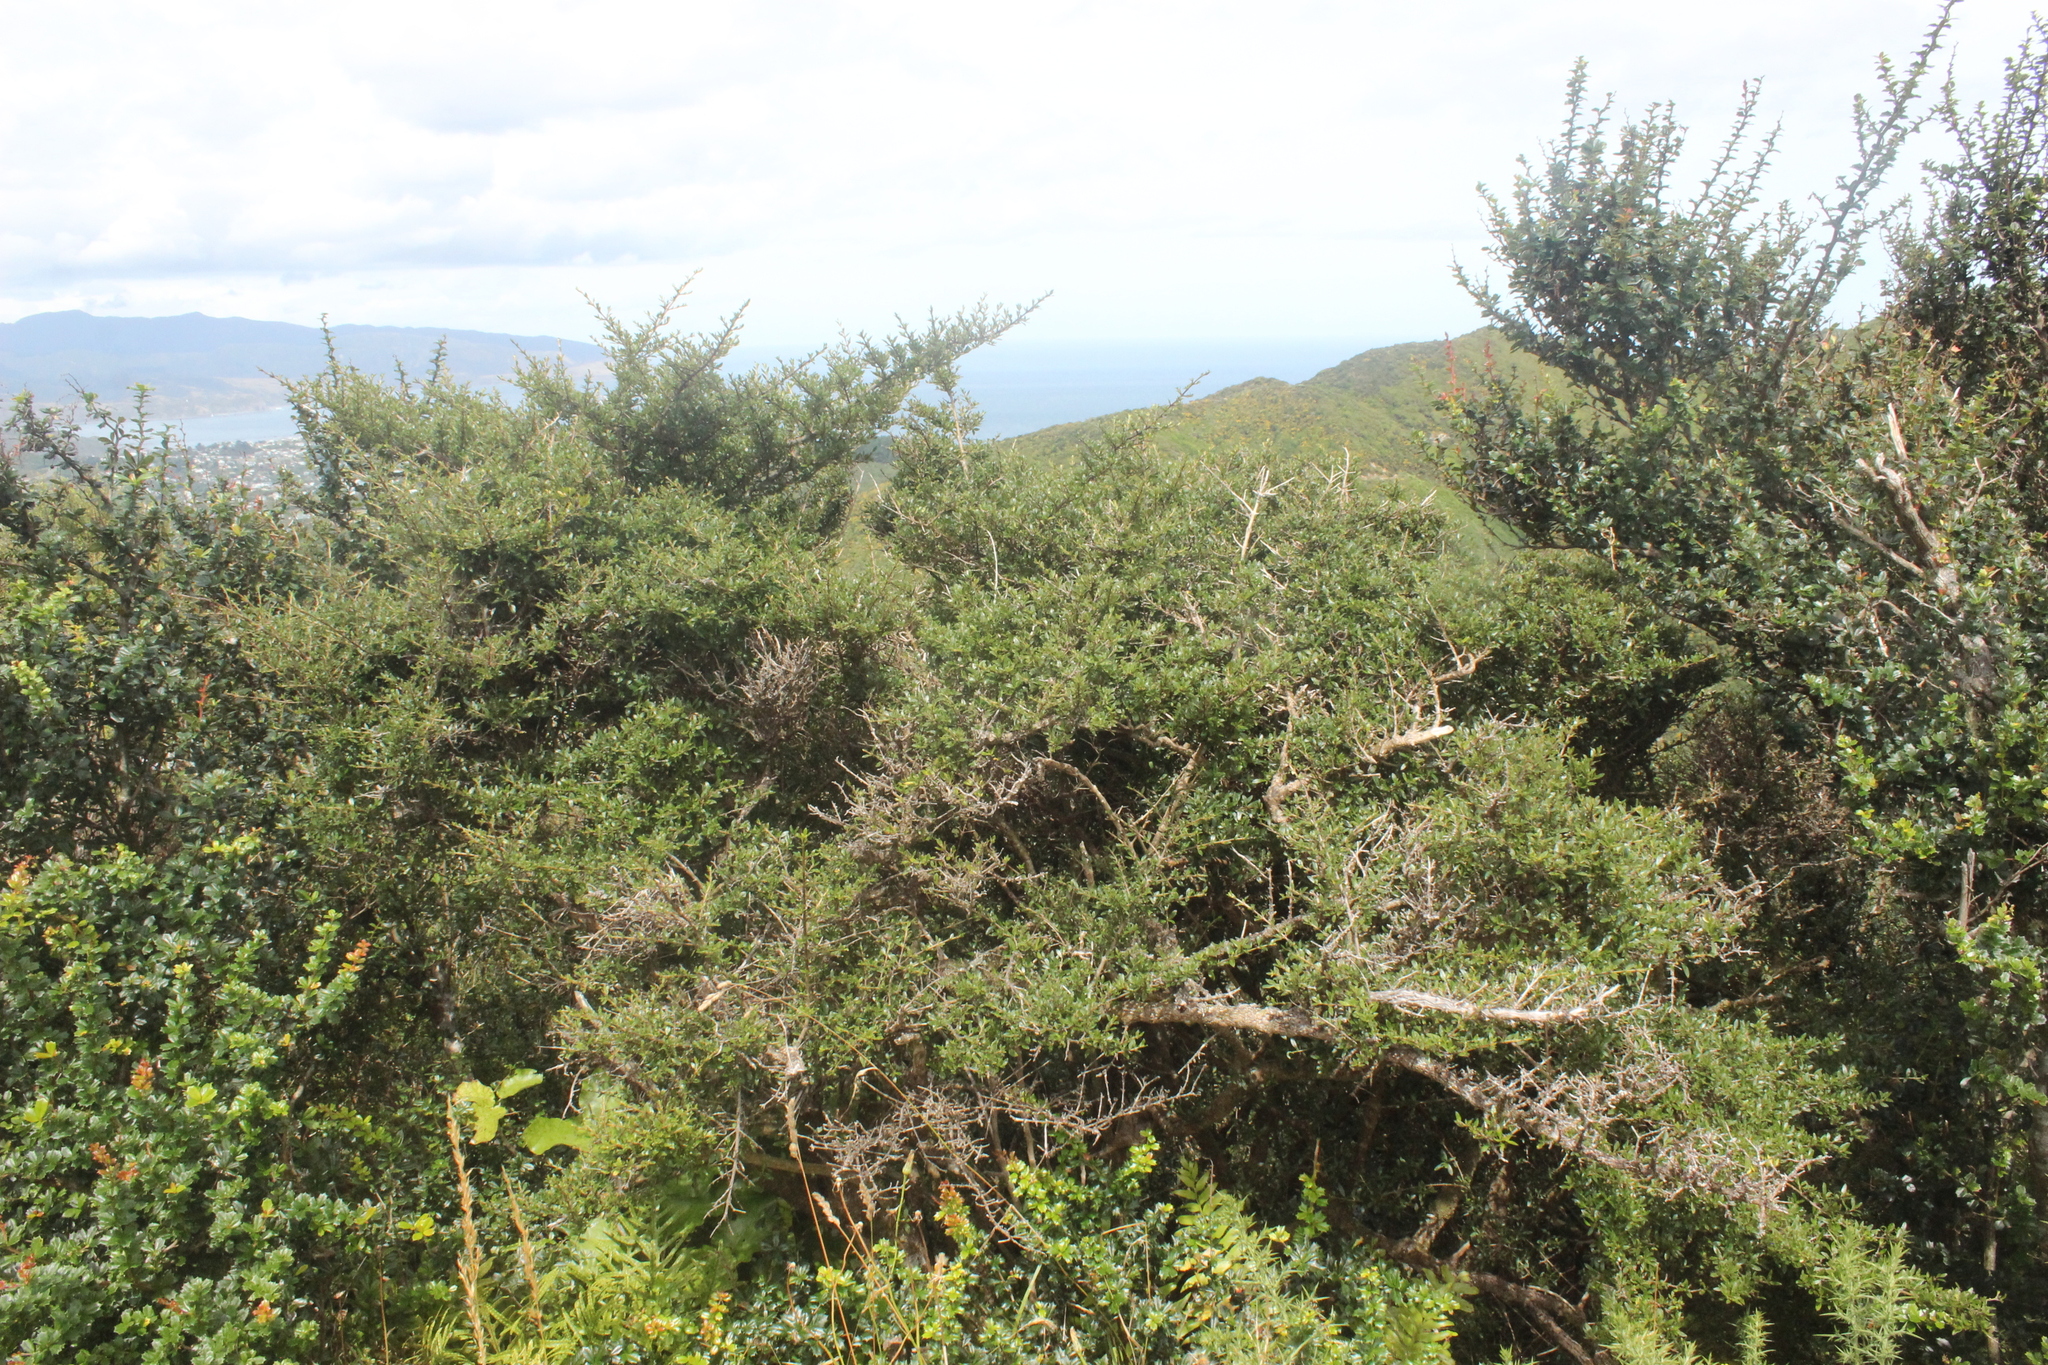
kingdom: Plantae
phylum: Tracheophyta
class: Magnoliopsida
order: Gentianales
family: Rubiaceae
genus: Coprosma
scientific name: Coprosma cunninghamii
